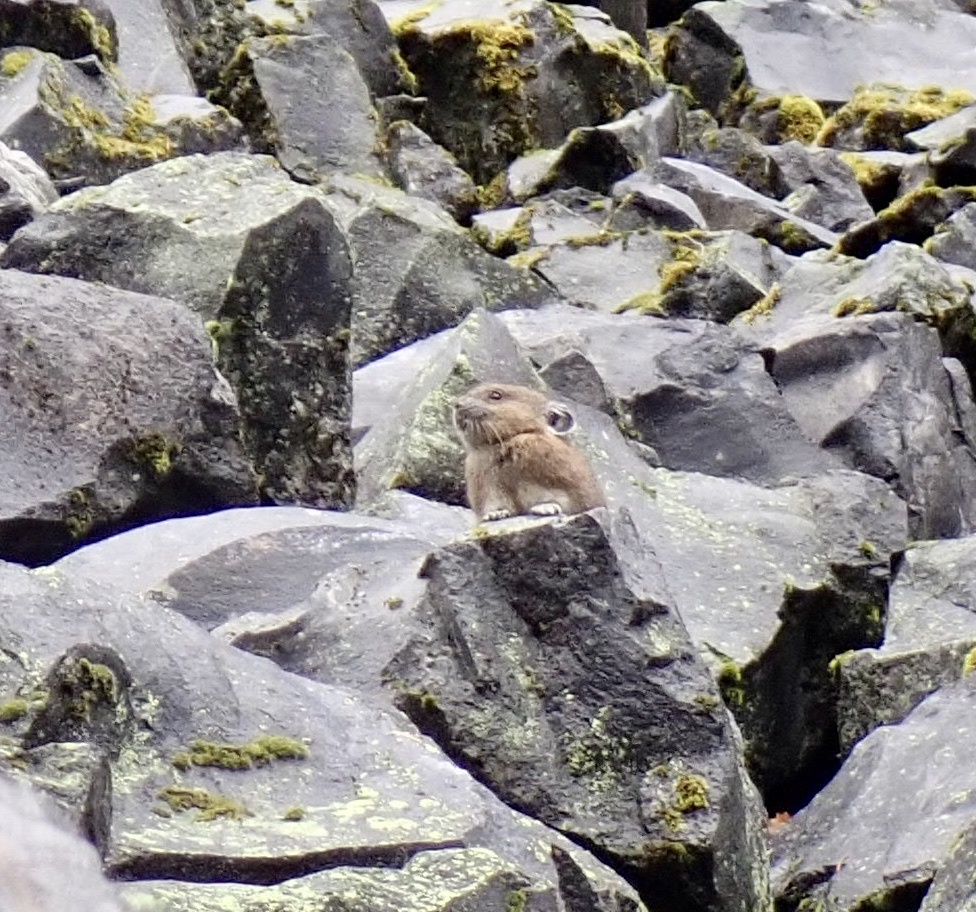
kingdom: Animalia
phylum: Chordata
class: Mammalia
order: Lagomorpha
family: Ochotonidae
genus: Ochotona
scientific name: Ochotona princeps
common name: American pika
